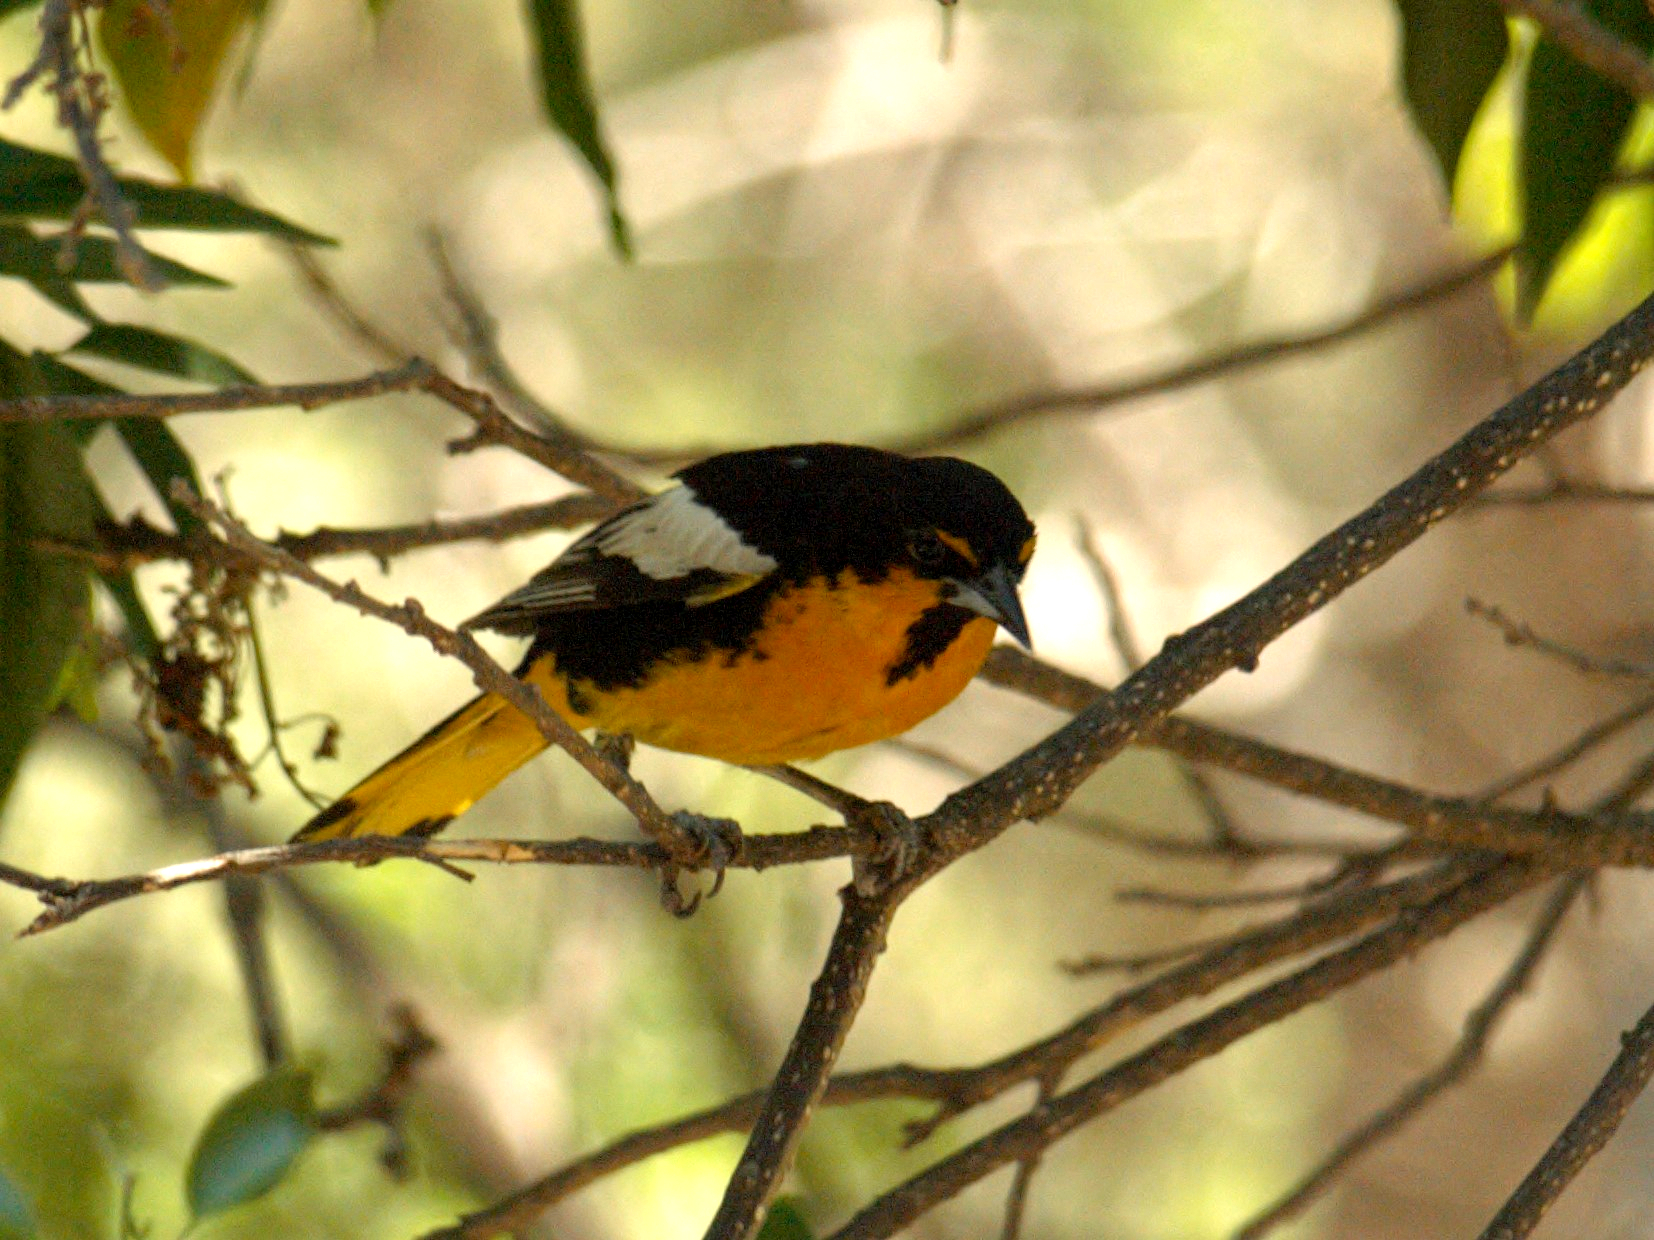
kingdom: Animalia
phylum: Chordata
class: Aves
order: Passeriformes
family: Icteridae
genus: Icterus
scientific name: Icterus abeillei
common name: Black-backed oriole
